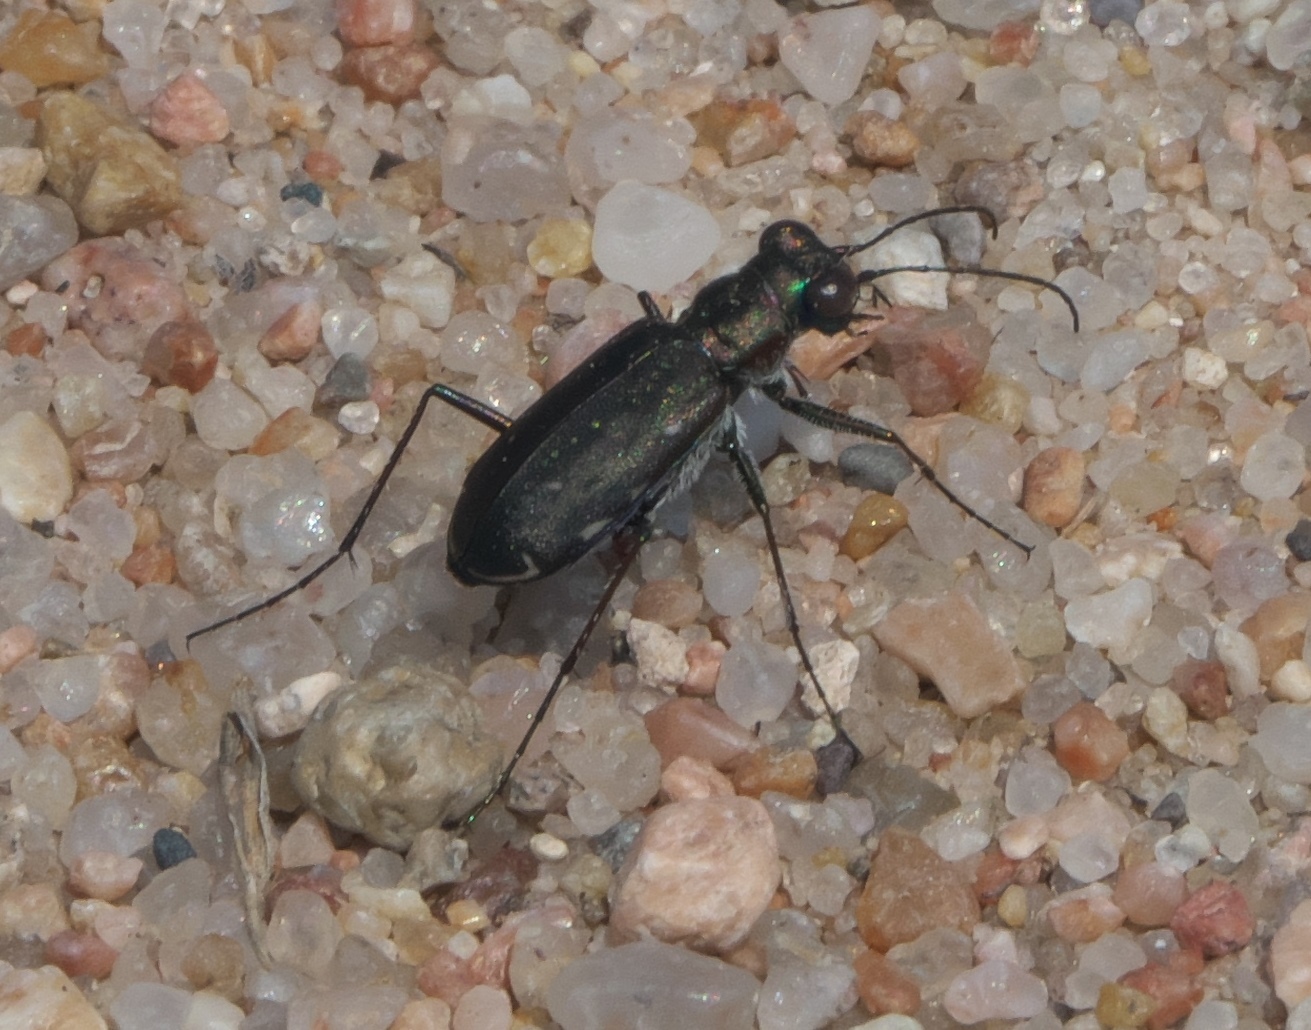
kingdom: Animalia
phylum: Arthropoda
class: Insecta
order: Coleoptera
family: Carabidae
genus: Cicindela
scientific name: Cicindela punctulata
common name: Punctured tiger beetle
